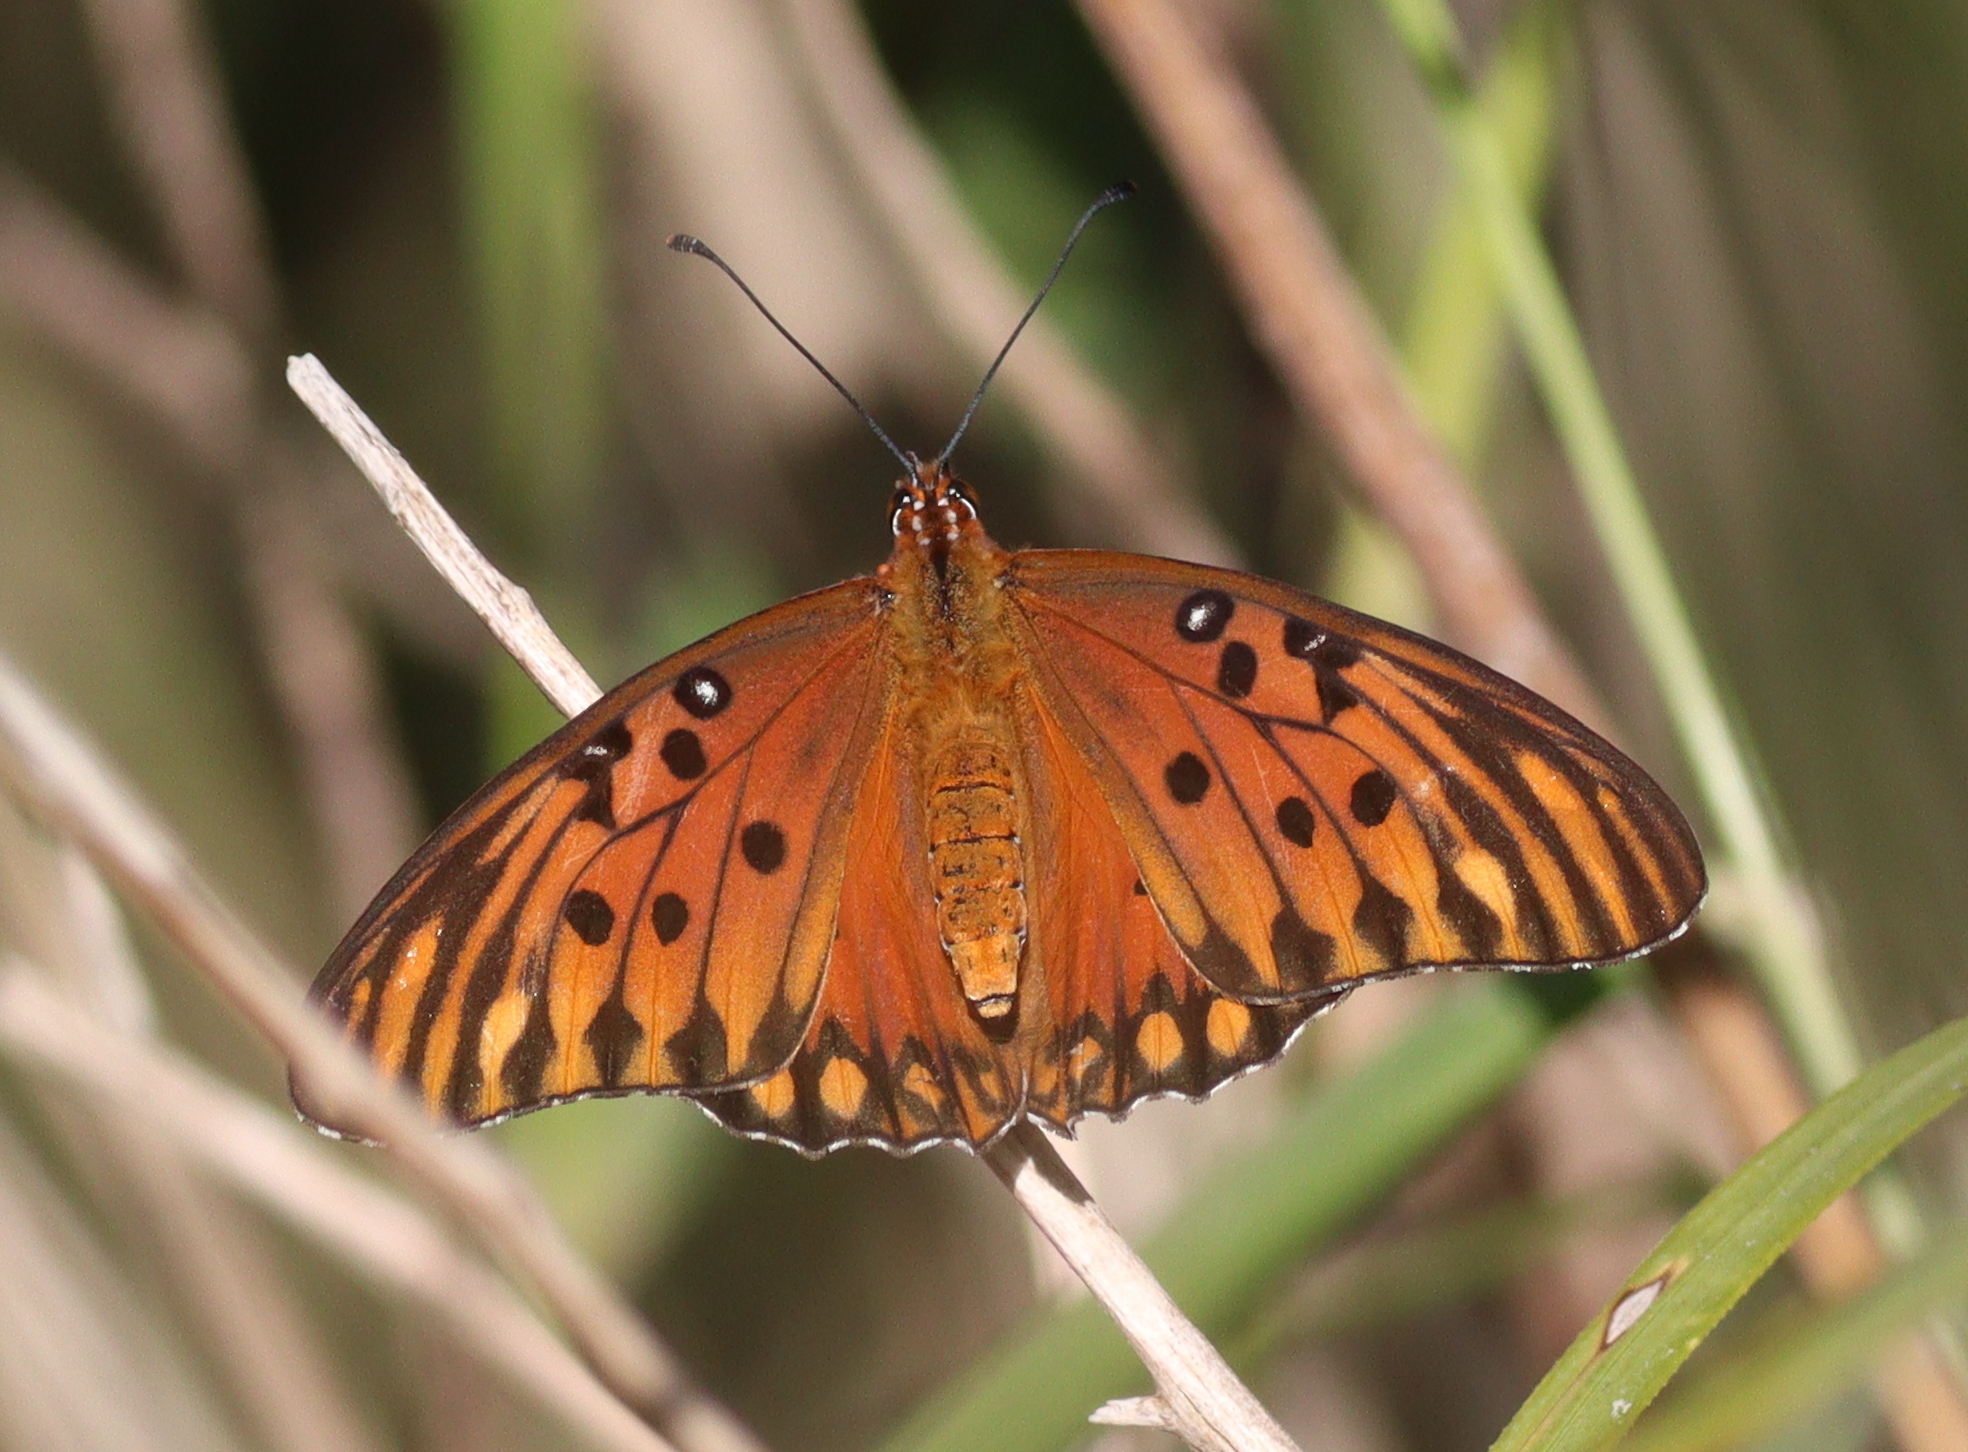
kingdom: Animalia
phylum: Arthropoda
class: Insecta
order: Lepidoptera
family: Nymphalidae
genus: Dione
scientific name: Dione vanillae
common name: Gulf fritillary
